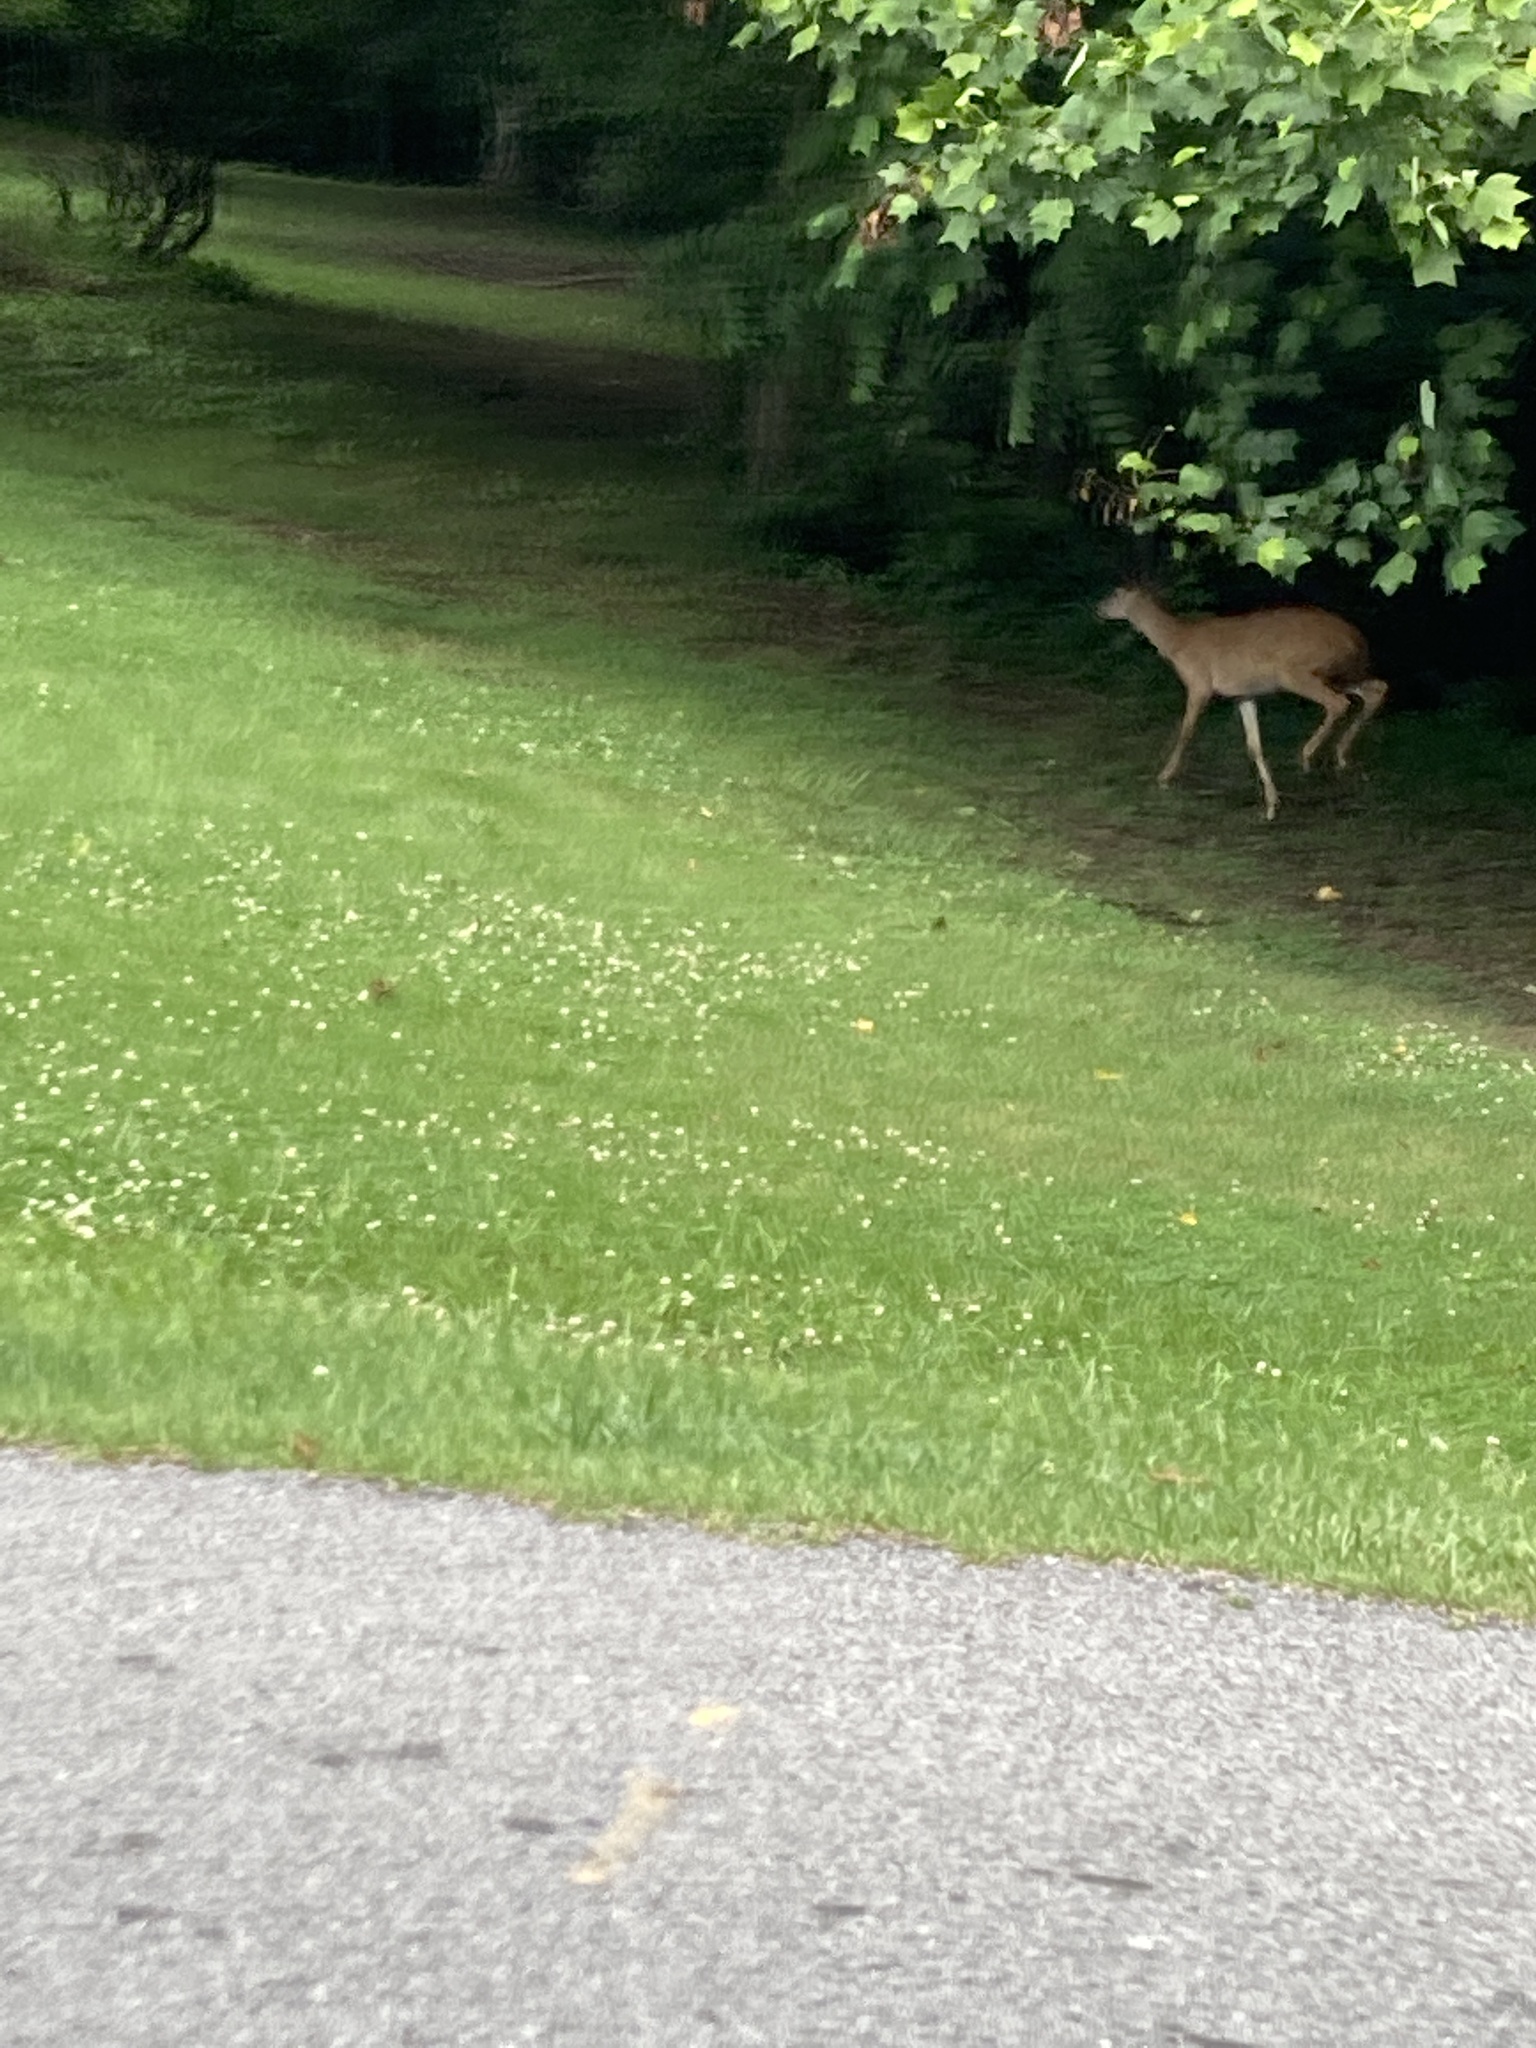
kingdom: Animalia
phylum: Chordata
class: Mammalia
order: Artiodactyla
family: Cervidae
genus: Odocoileus
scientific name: Odocoileus virginianus
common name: White-tailed deer
